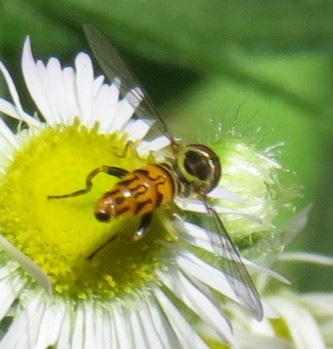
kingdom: Animalia
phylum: Arthropoda
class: Insecta
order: Diptera
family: Syrphidae
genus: Toxomerus
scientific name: Toxomerus geminatus
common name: Eastern calligrapher
